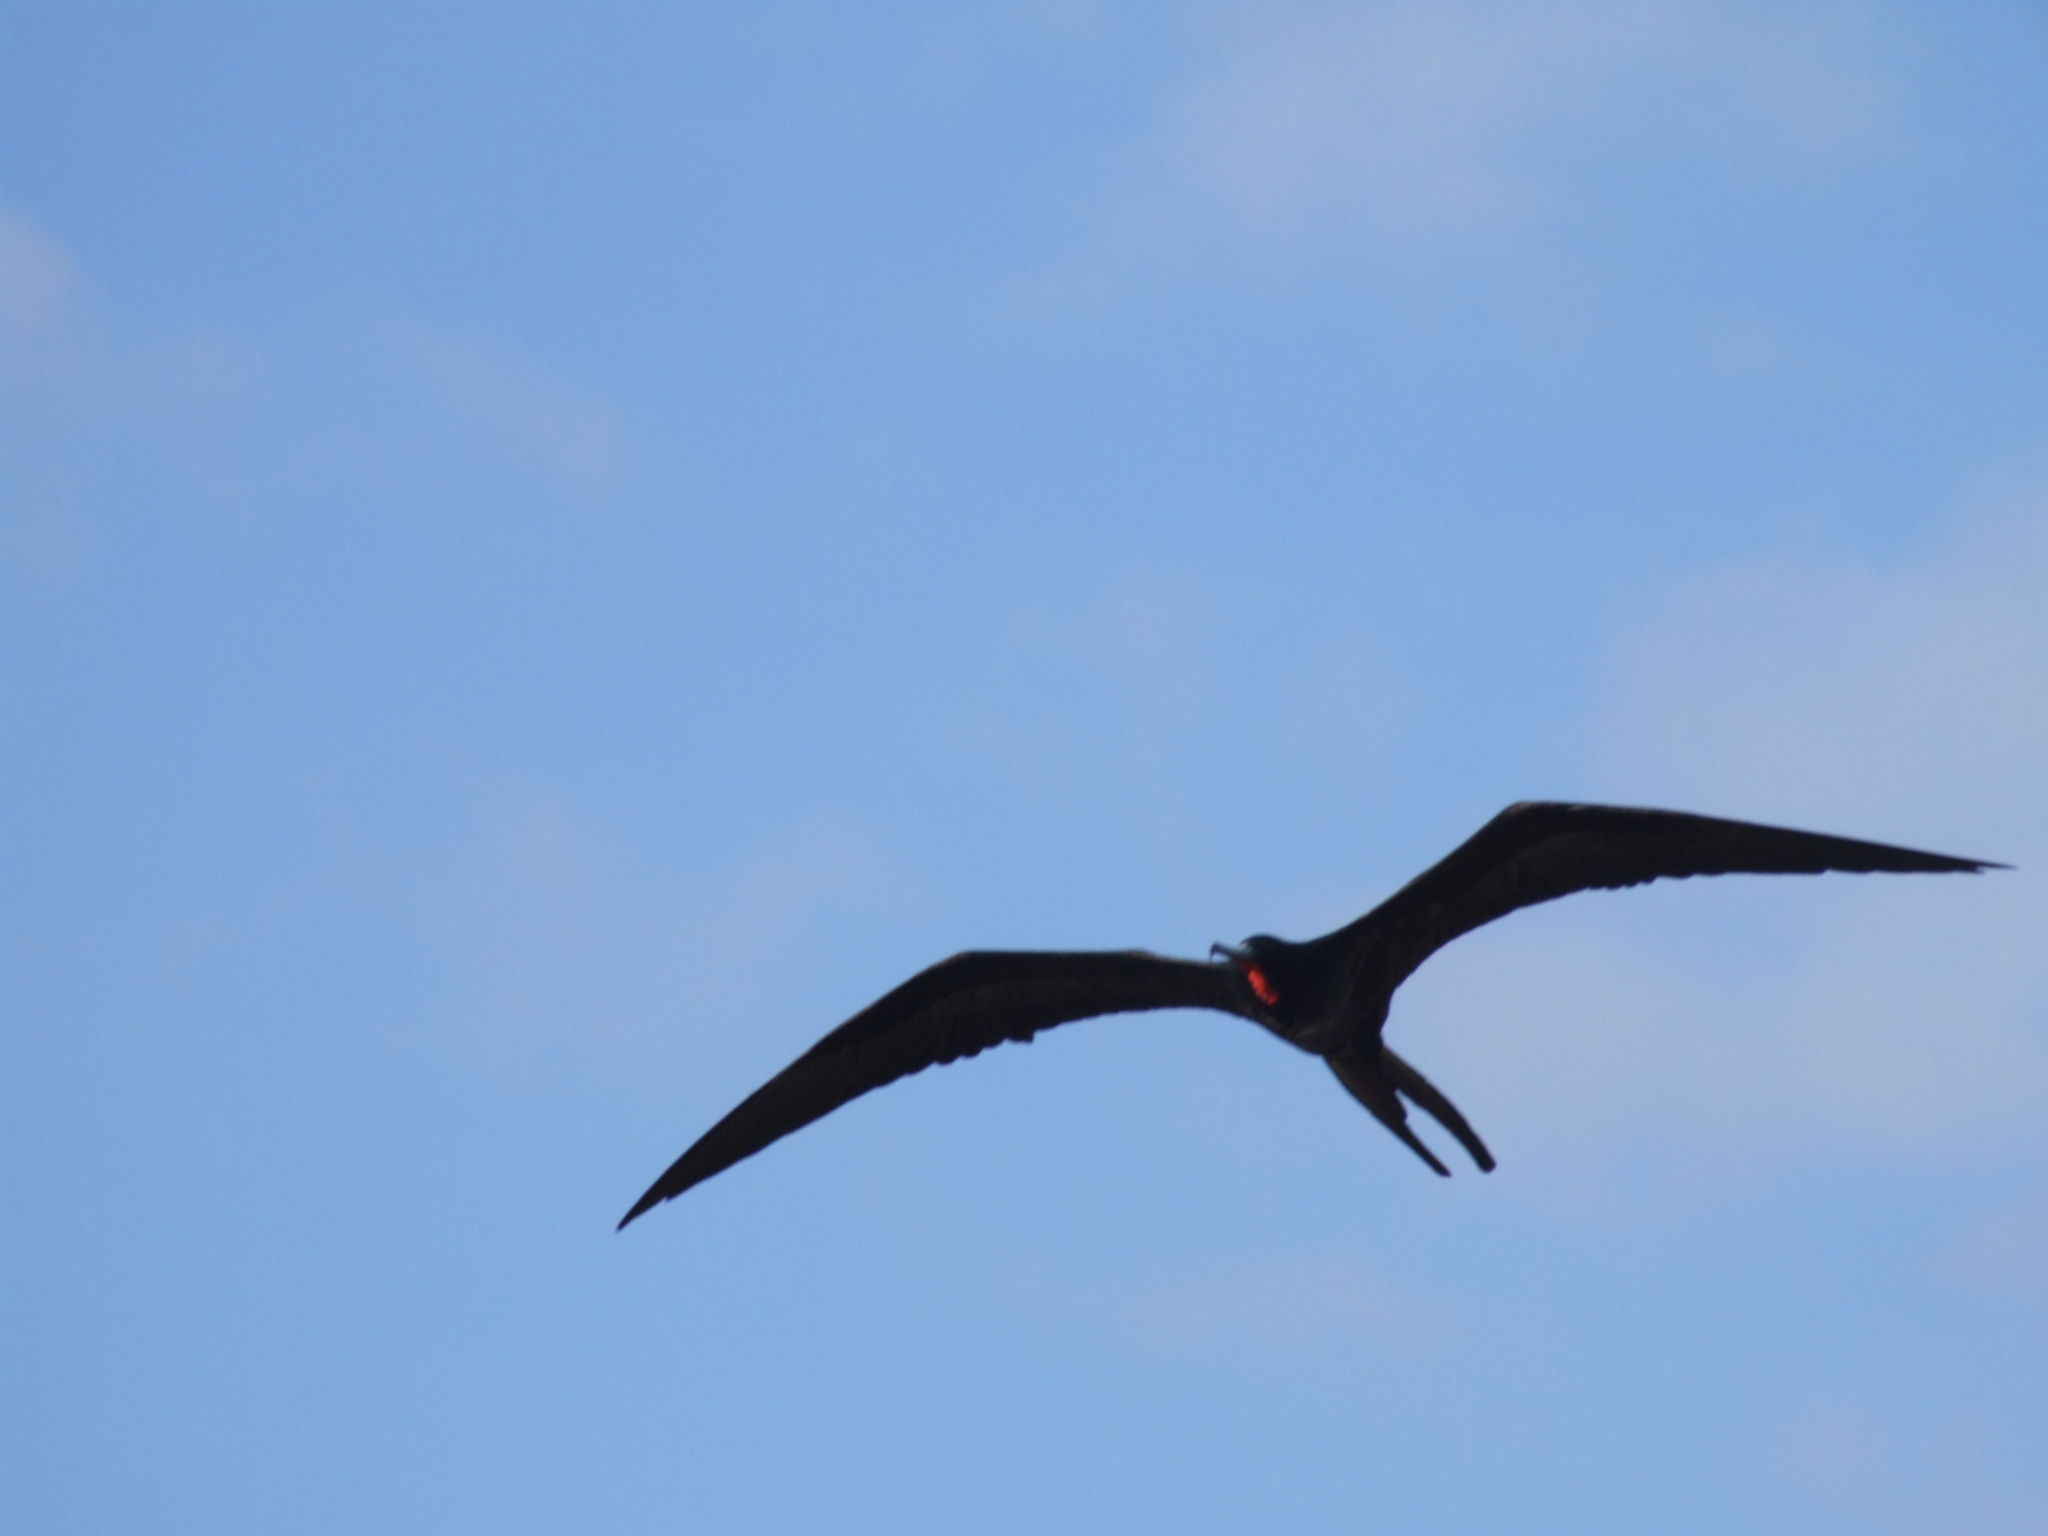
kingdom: Animalia
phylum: Chordata
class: Aves
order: Suliformes
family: Fregatidae
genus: Fregata
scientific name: Fregata magnificens
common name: Magnificent frigatebird
